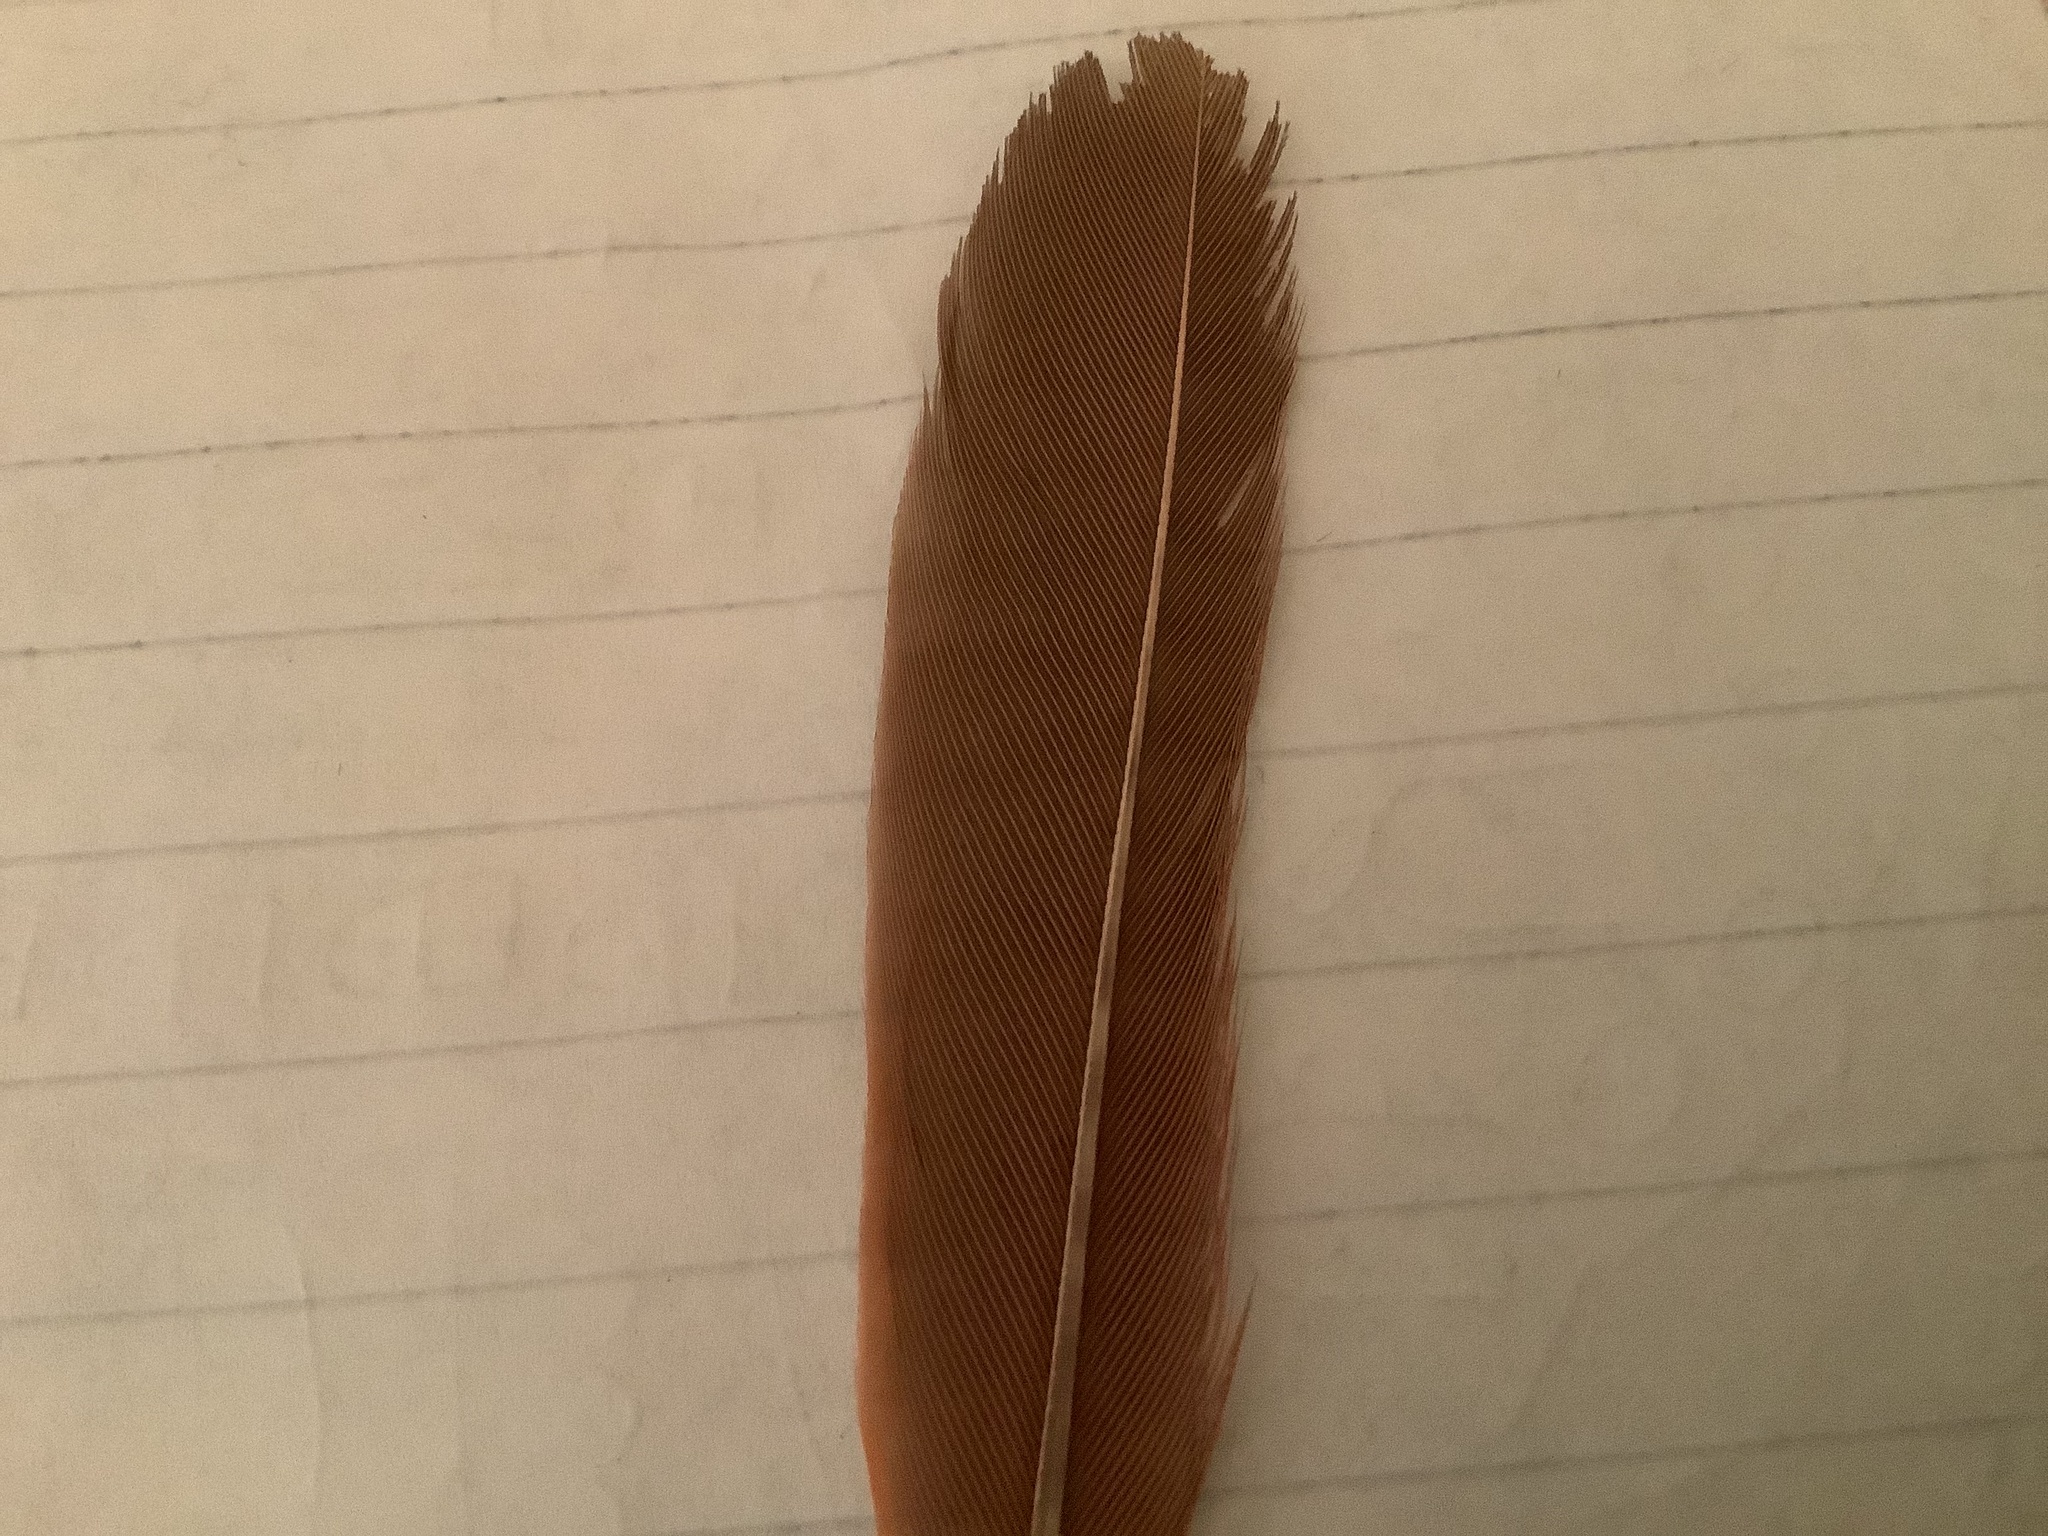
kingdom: Animalia
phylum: Chordata
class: Aves
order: Passeriformes
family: Cardinalidae
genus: Cardinalis
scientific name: Cardinalis cardinalis
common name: Northern cardinal
